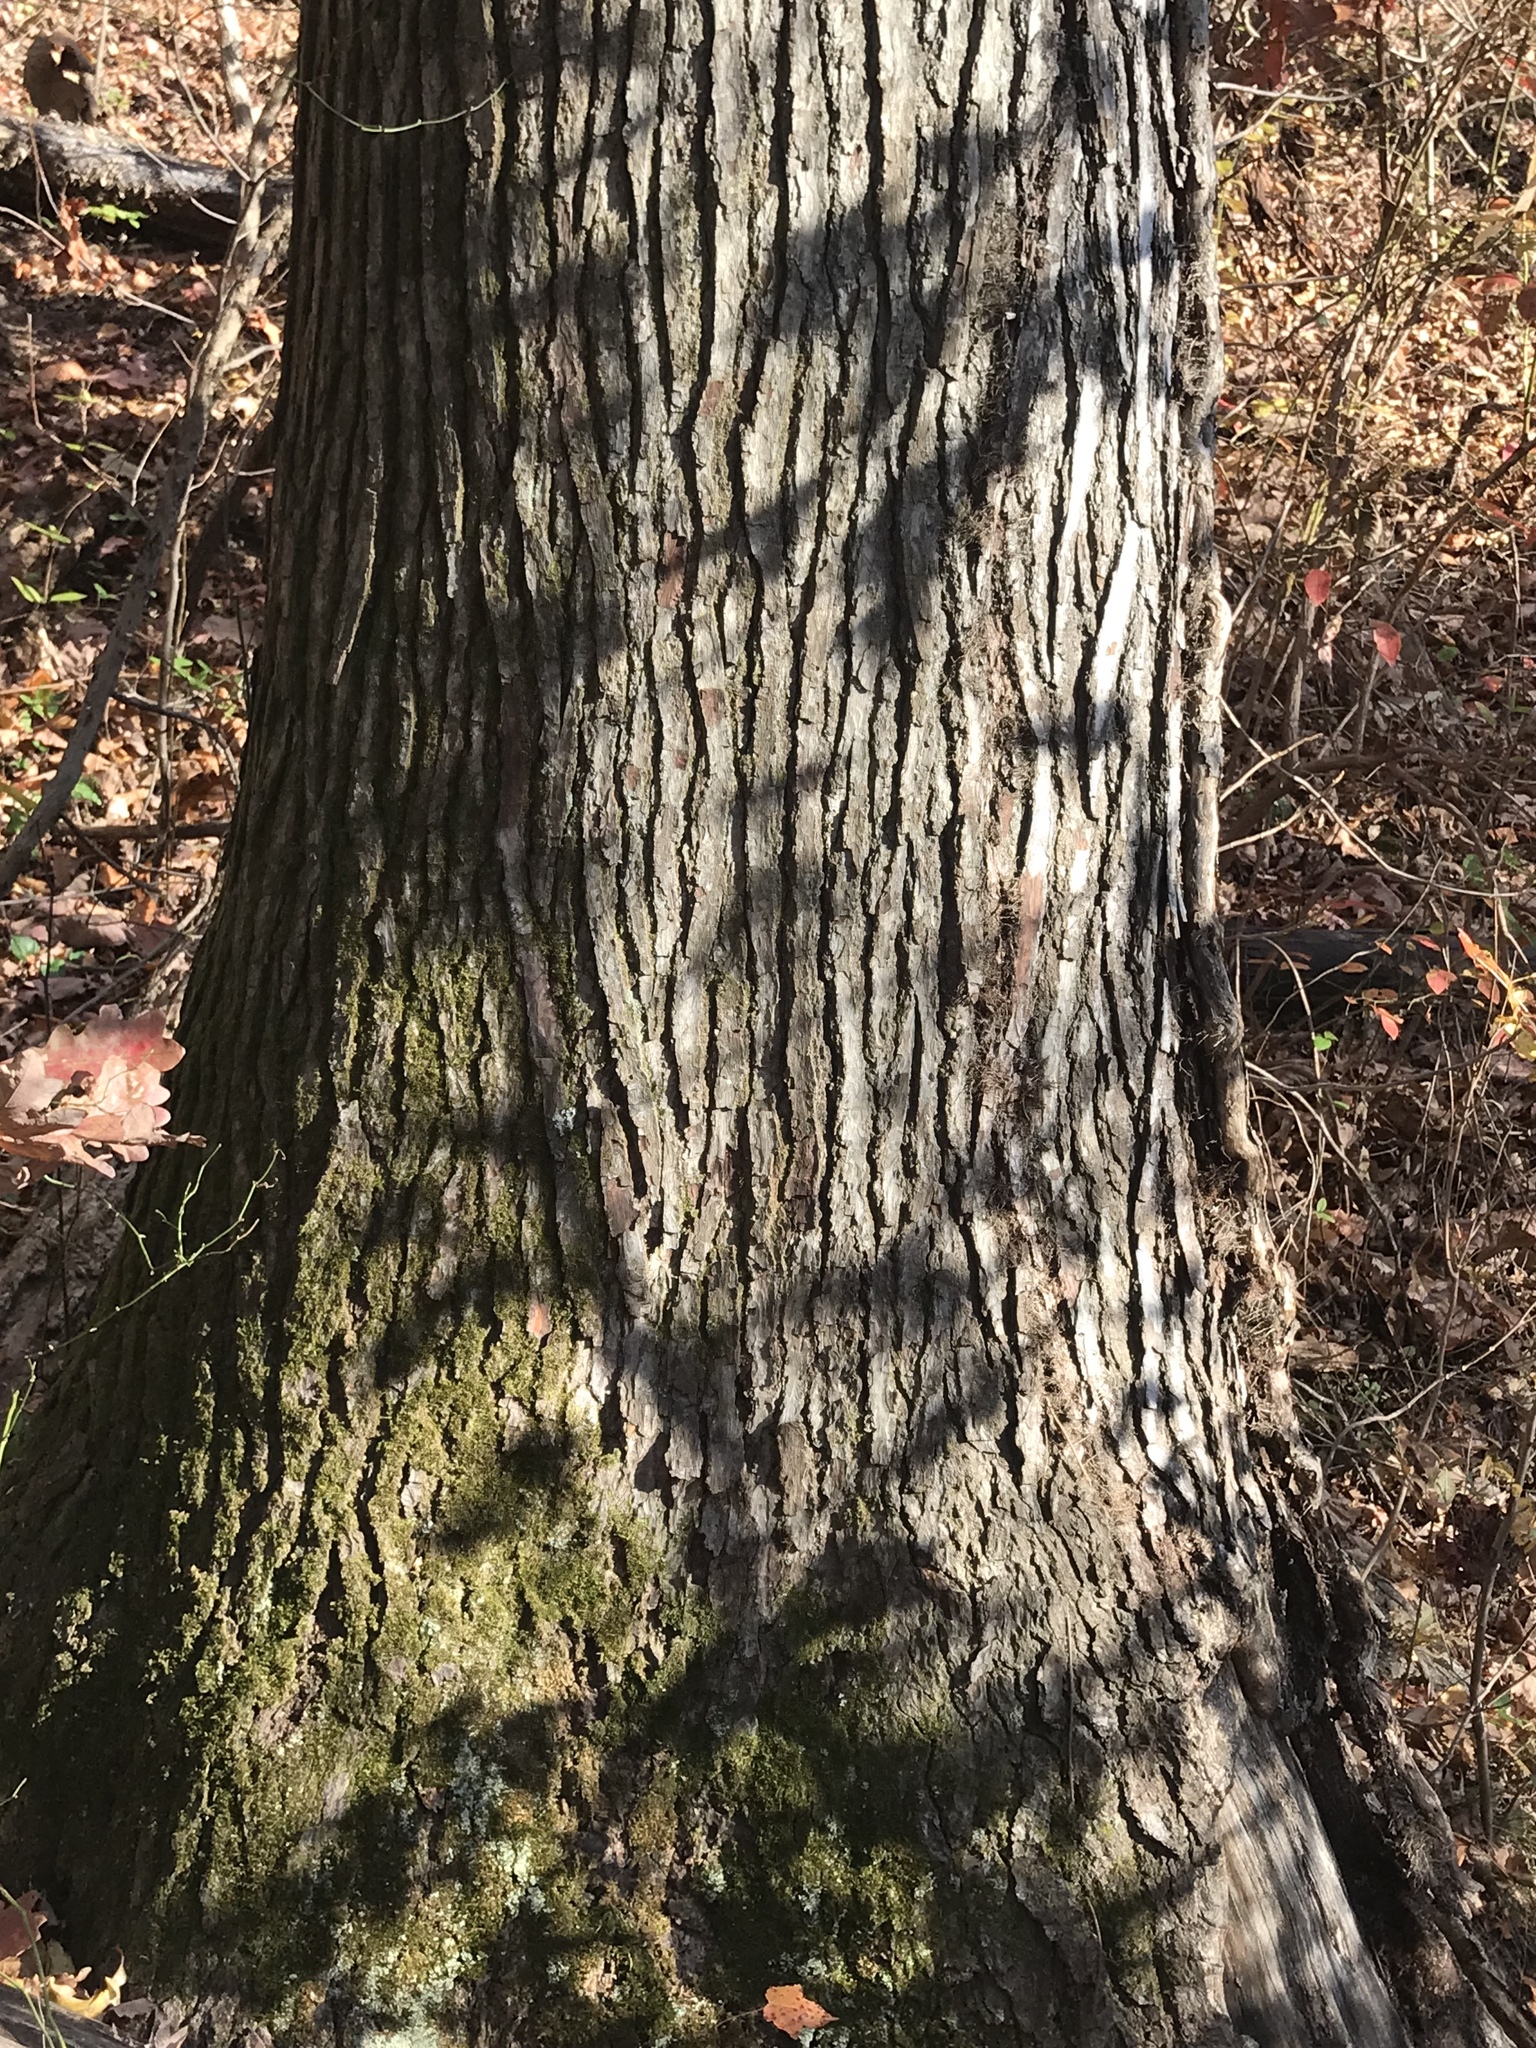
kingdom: Plantae
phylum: Tracheophyta
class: Magnoliopsida
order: Saxifragales
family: Altingiaceae
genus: Liquidambar
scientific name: Liquidambar styraciflua
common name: Sweet gum
